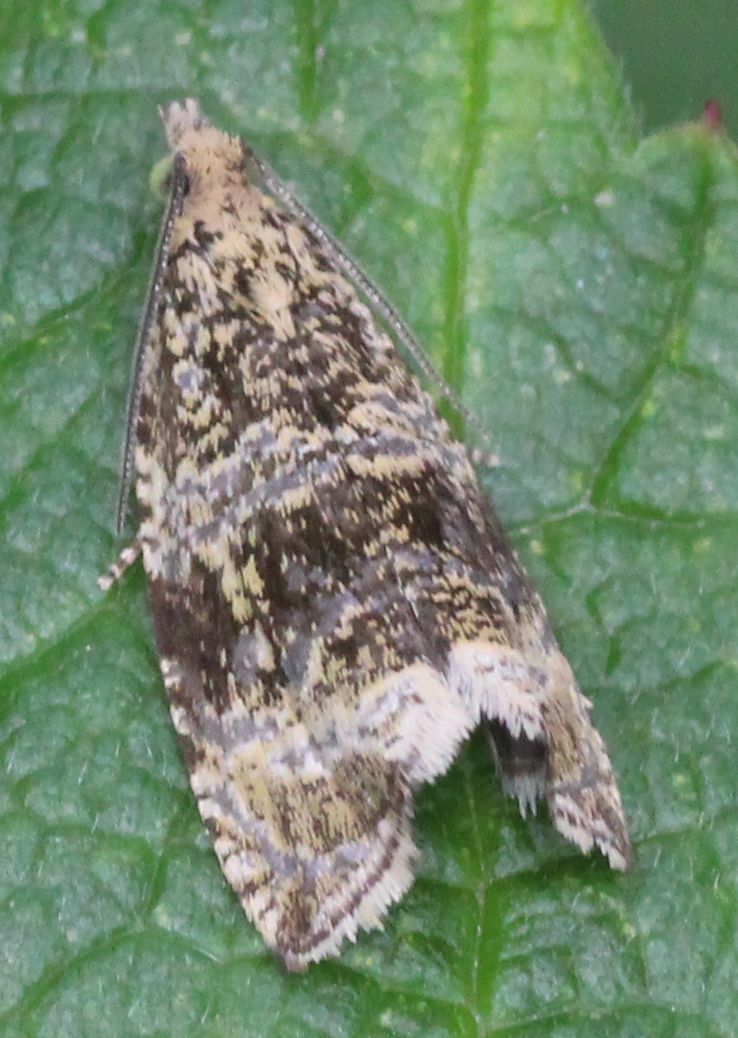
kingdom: Animalia
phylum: Arthropoda
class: Insecta
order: Lepidoptera
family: Tortricidae
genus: Syricoris
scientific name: Syricoris lacunana
